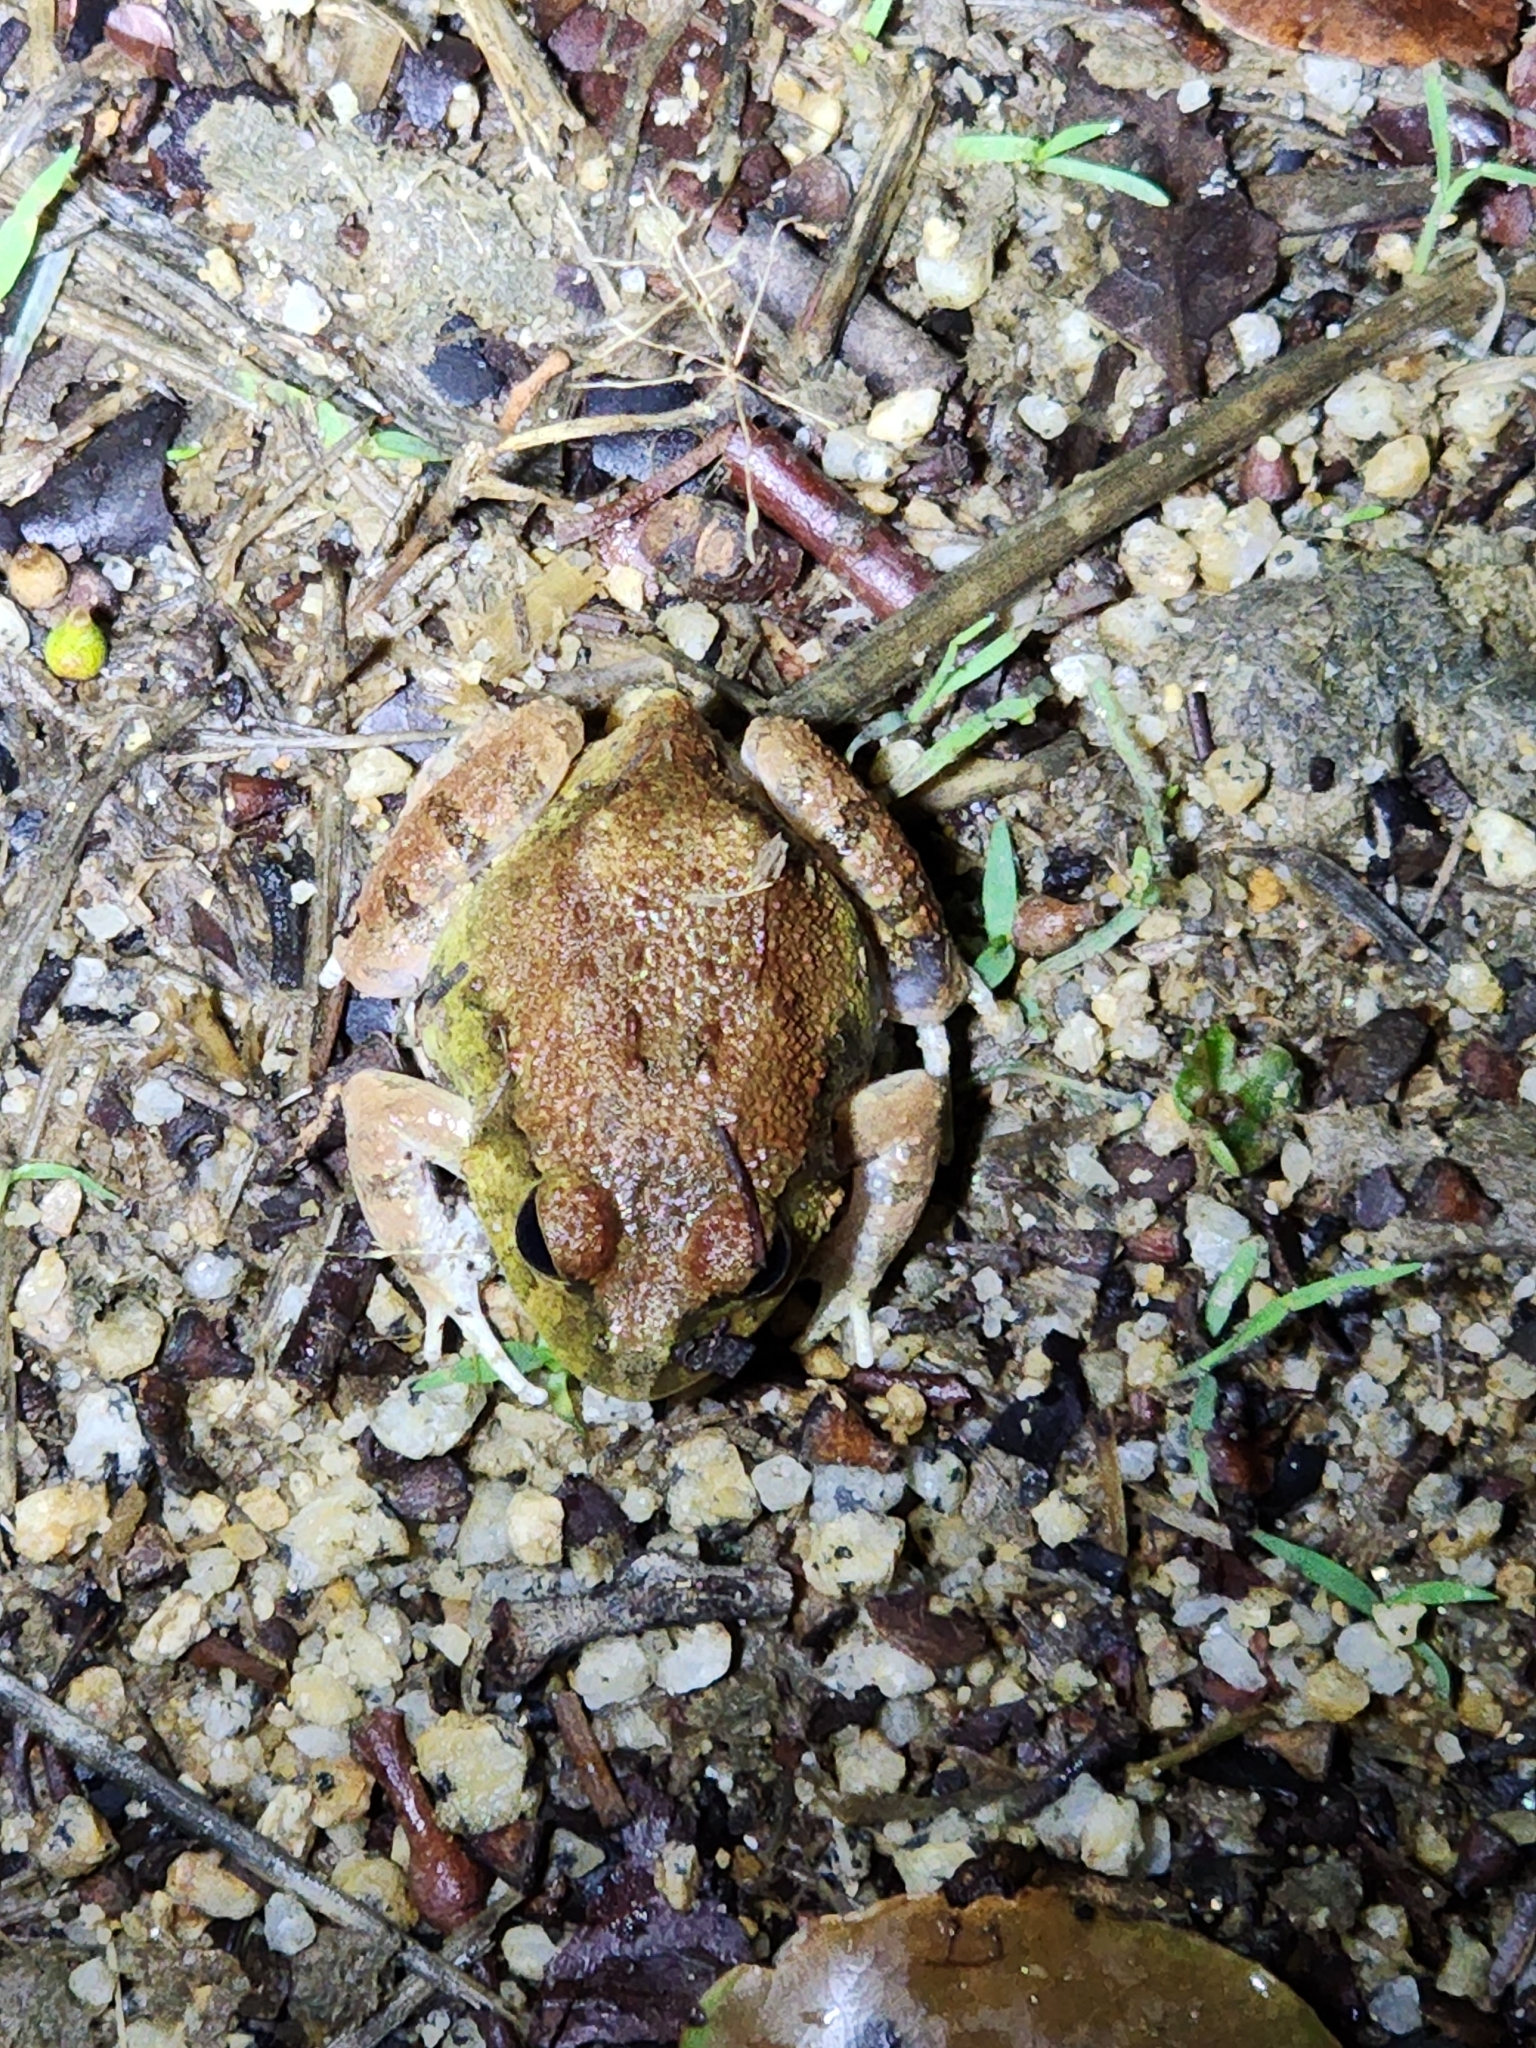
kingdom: Animalia
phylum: Chordata
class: Amphibia
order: Anura
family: Limnodynastidae
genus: Platyplectrum
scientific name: Platyplectrum ornatum
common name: Ornate burrowing frog
